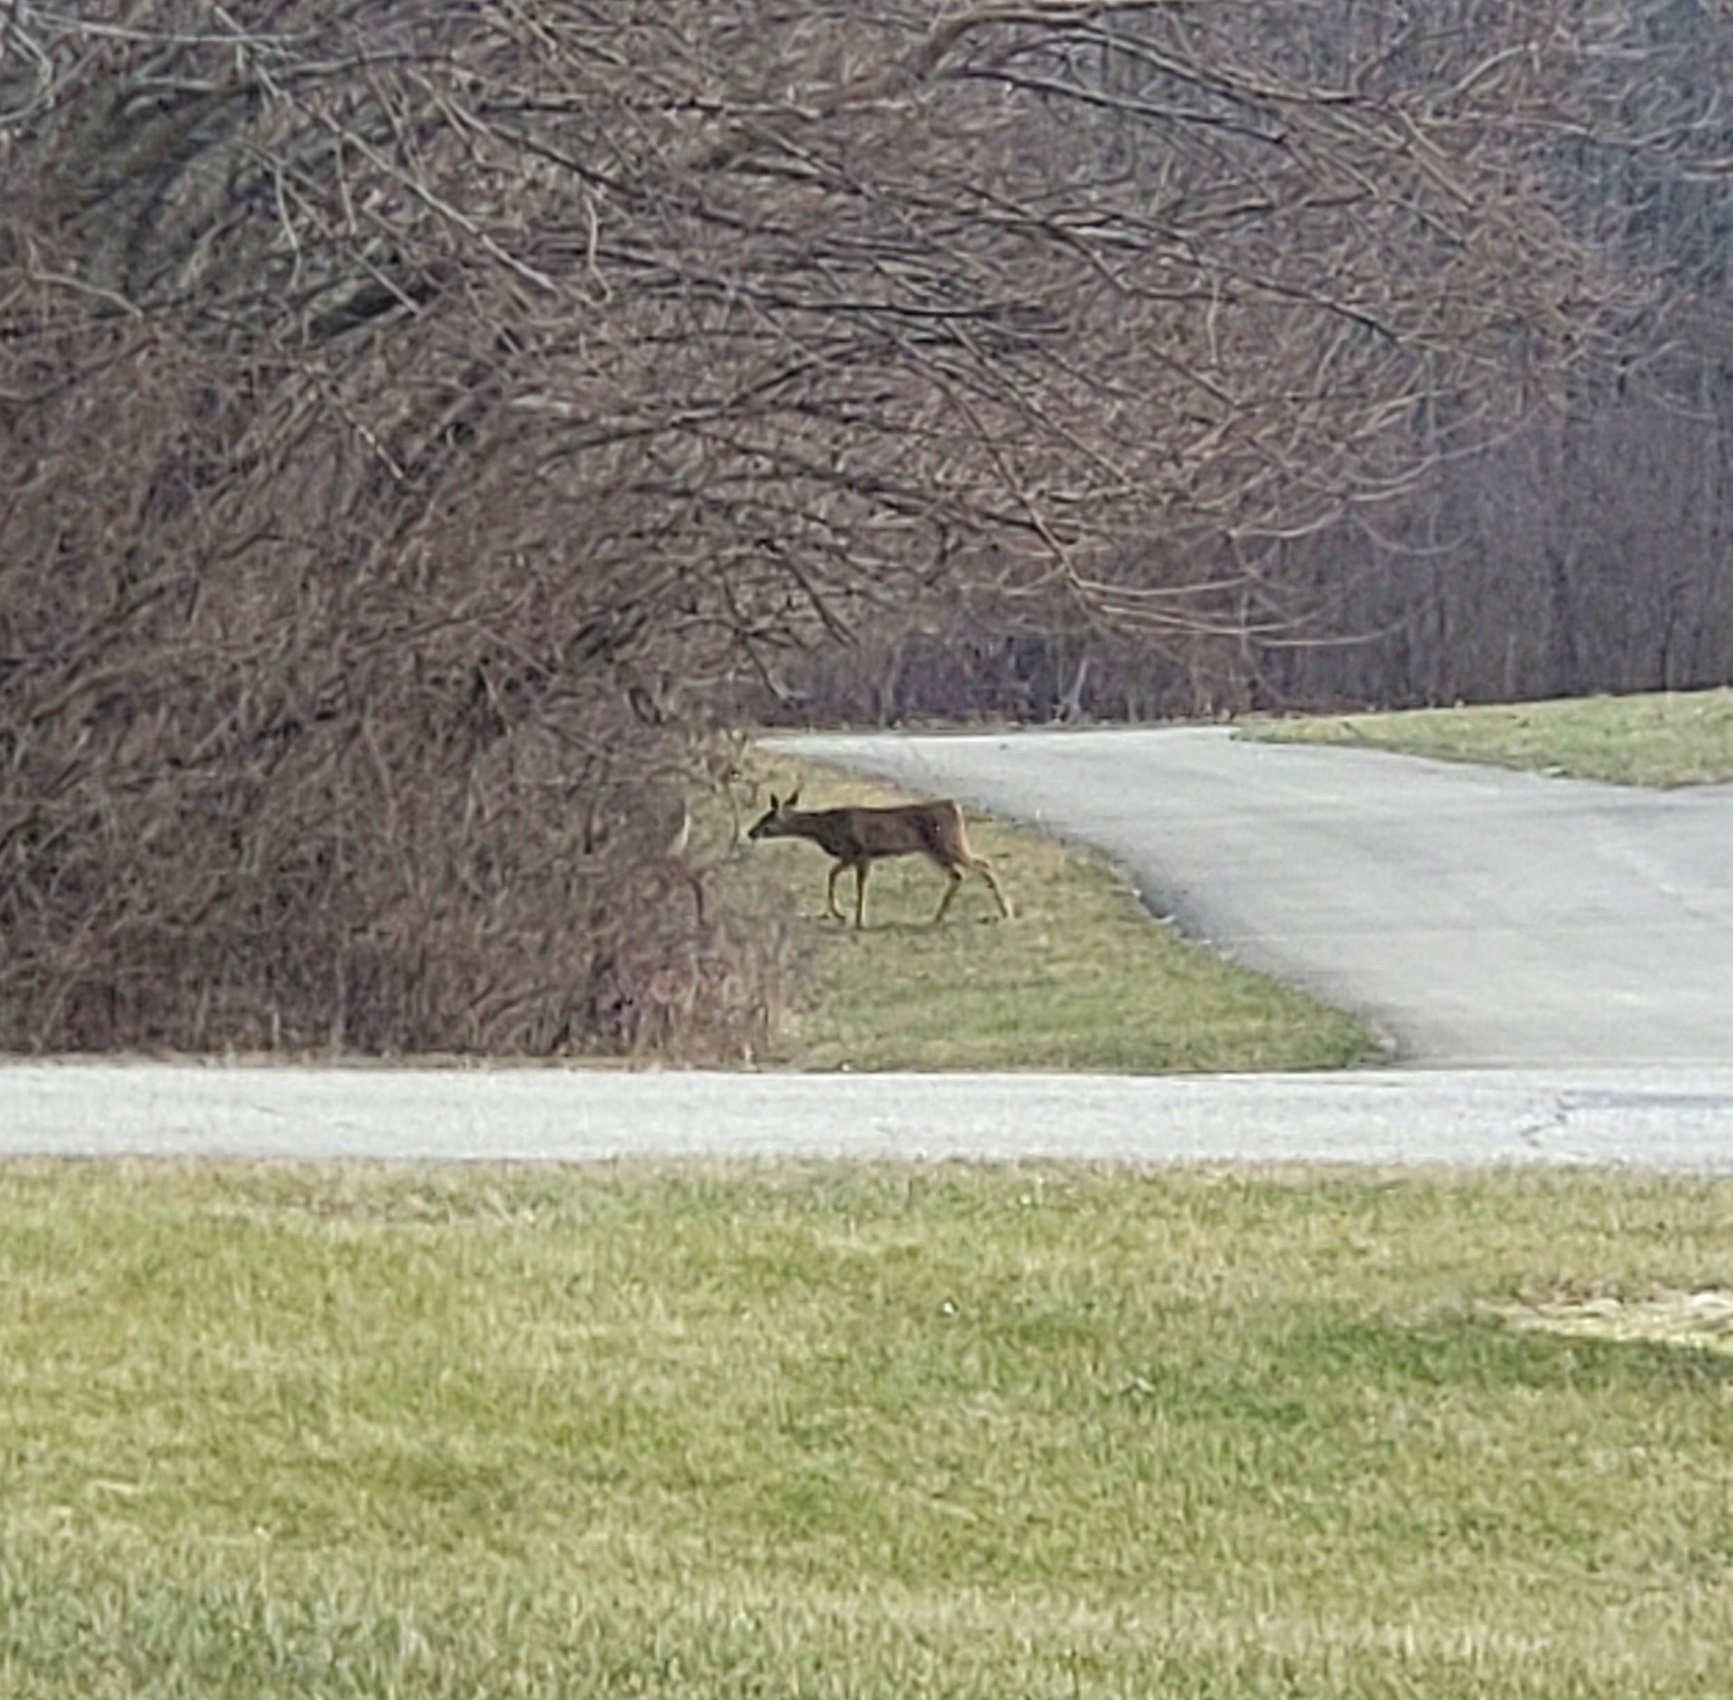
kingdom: Animalia
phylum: Chordata
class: Mammalia
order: Artiodactyla
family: Cervidae
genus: Odocoileus
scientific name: Odocoileus virginianus
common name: White-tailed deer
